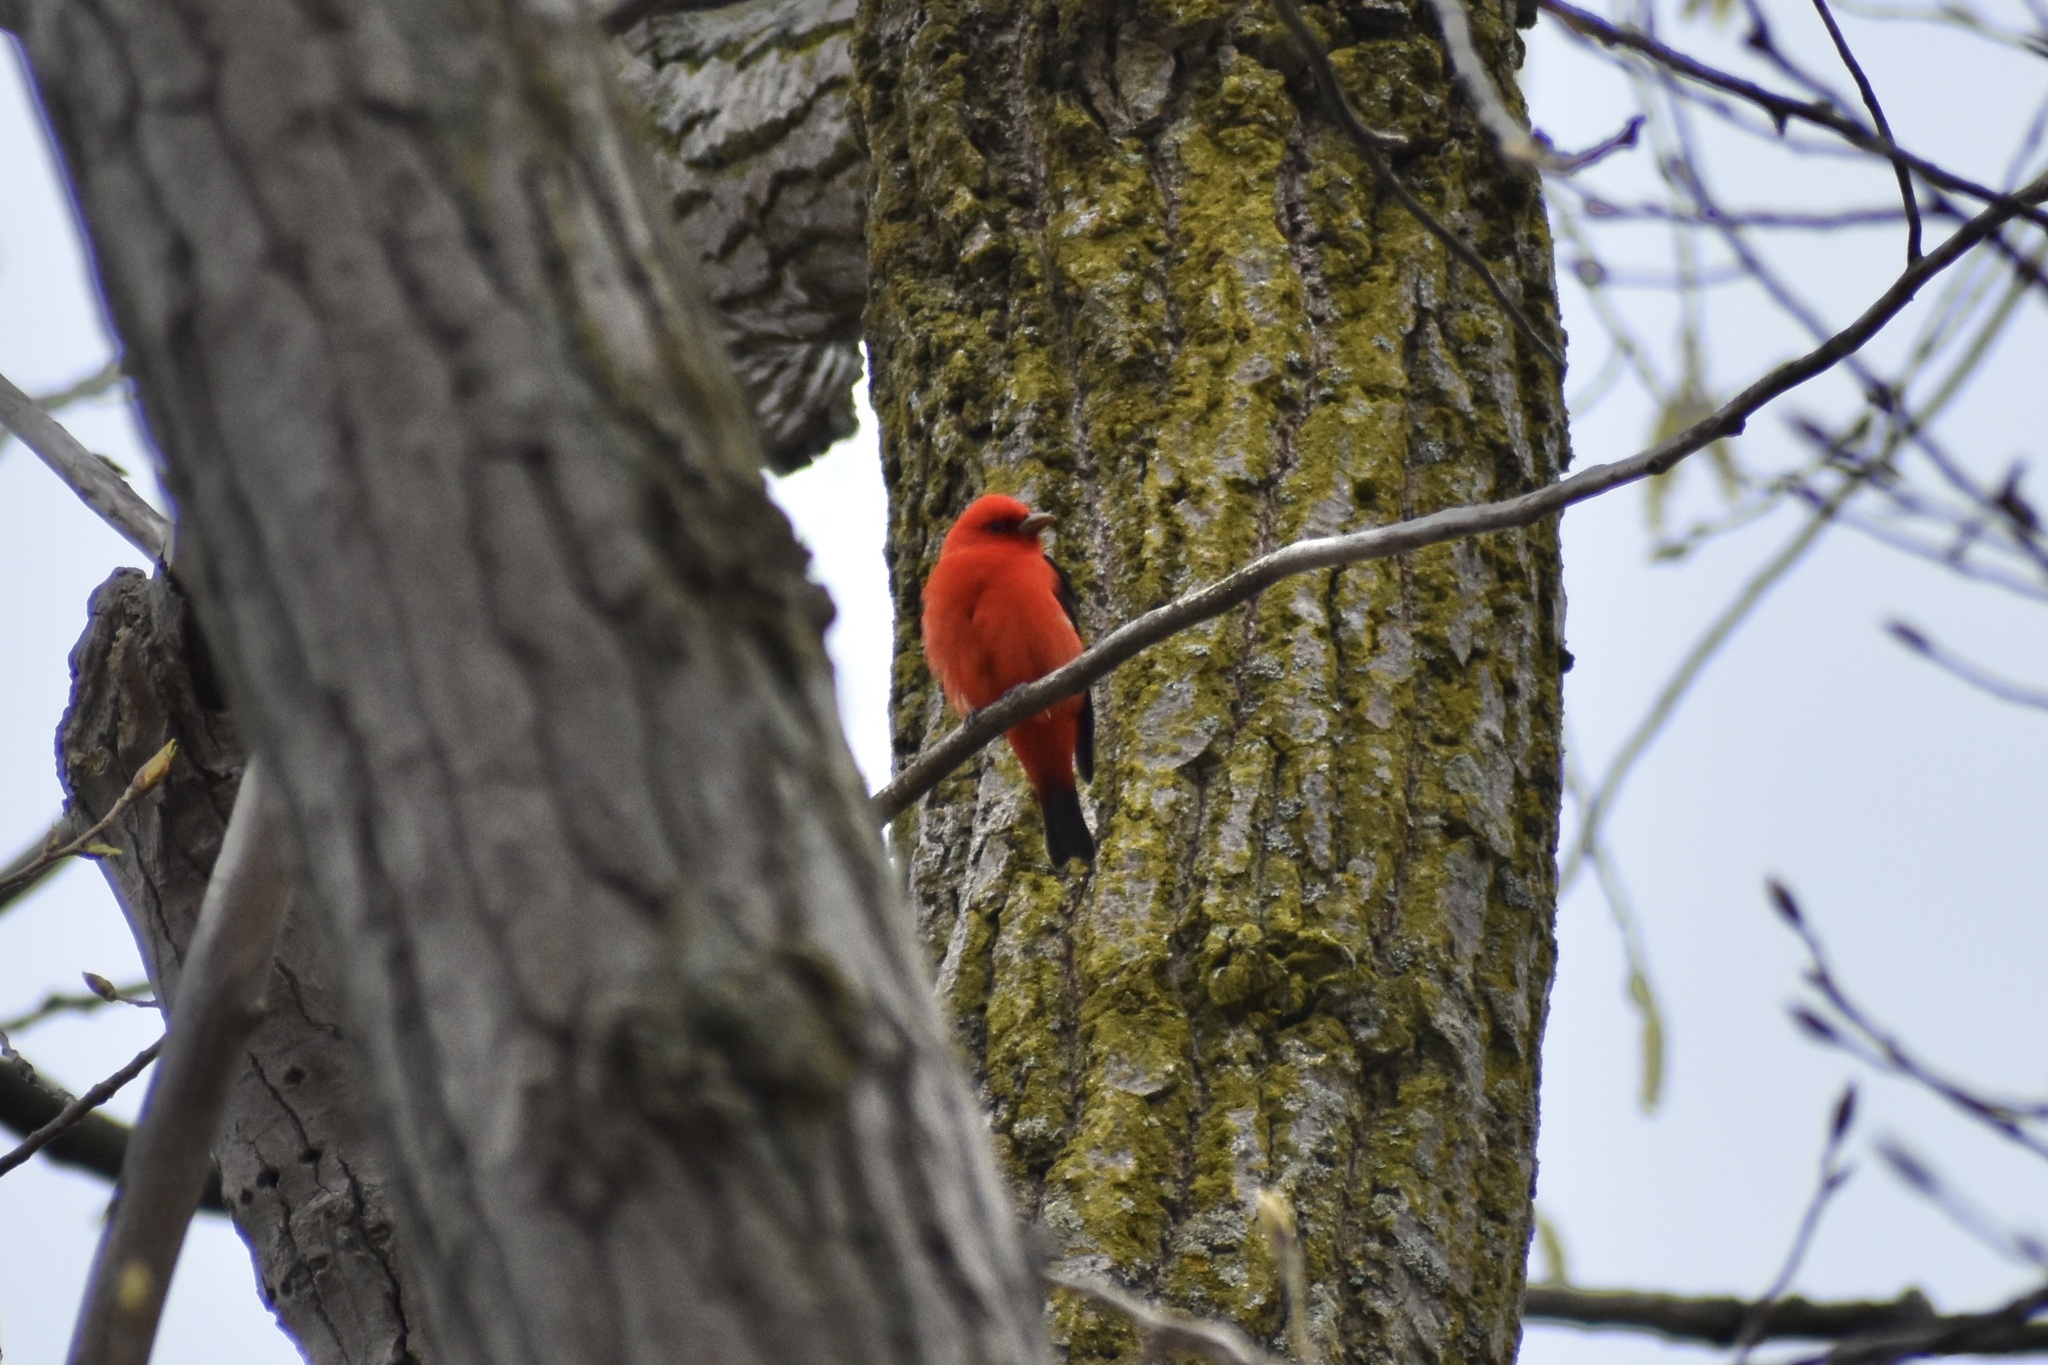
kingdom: Animalia
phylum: Chordata
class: Aves
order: Passeriformes
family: Cardinalidae
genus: Piranga
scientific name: Piranga olivacea
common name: Scarlet tanager
